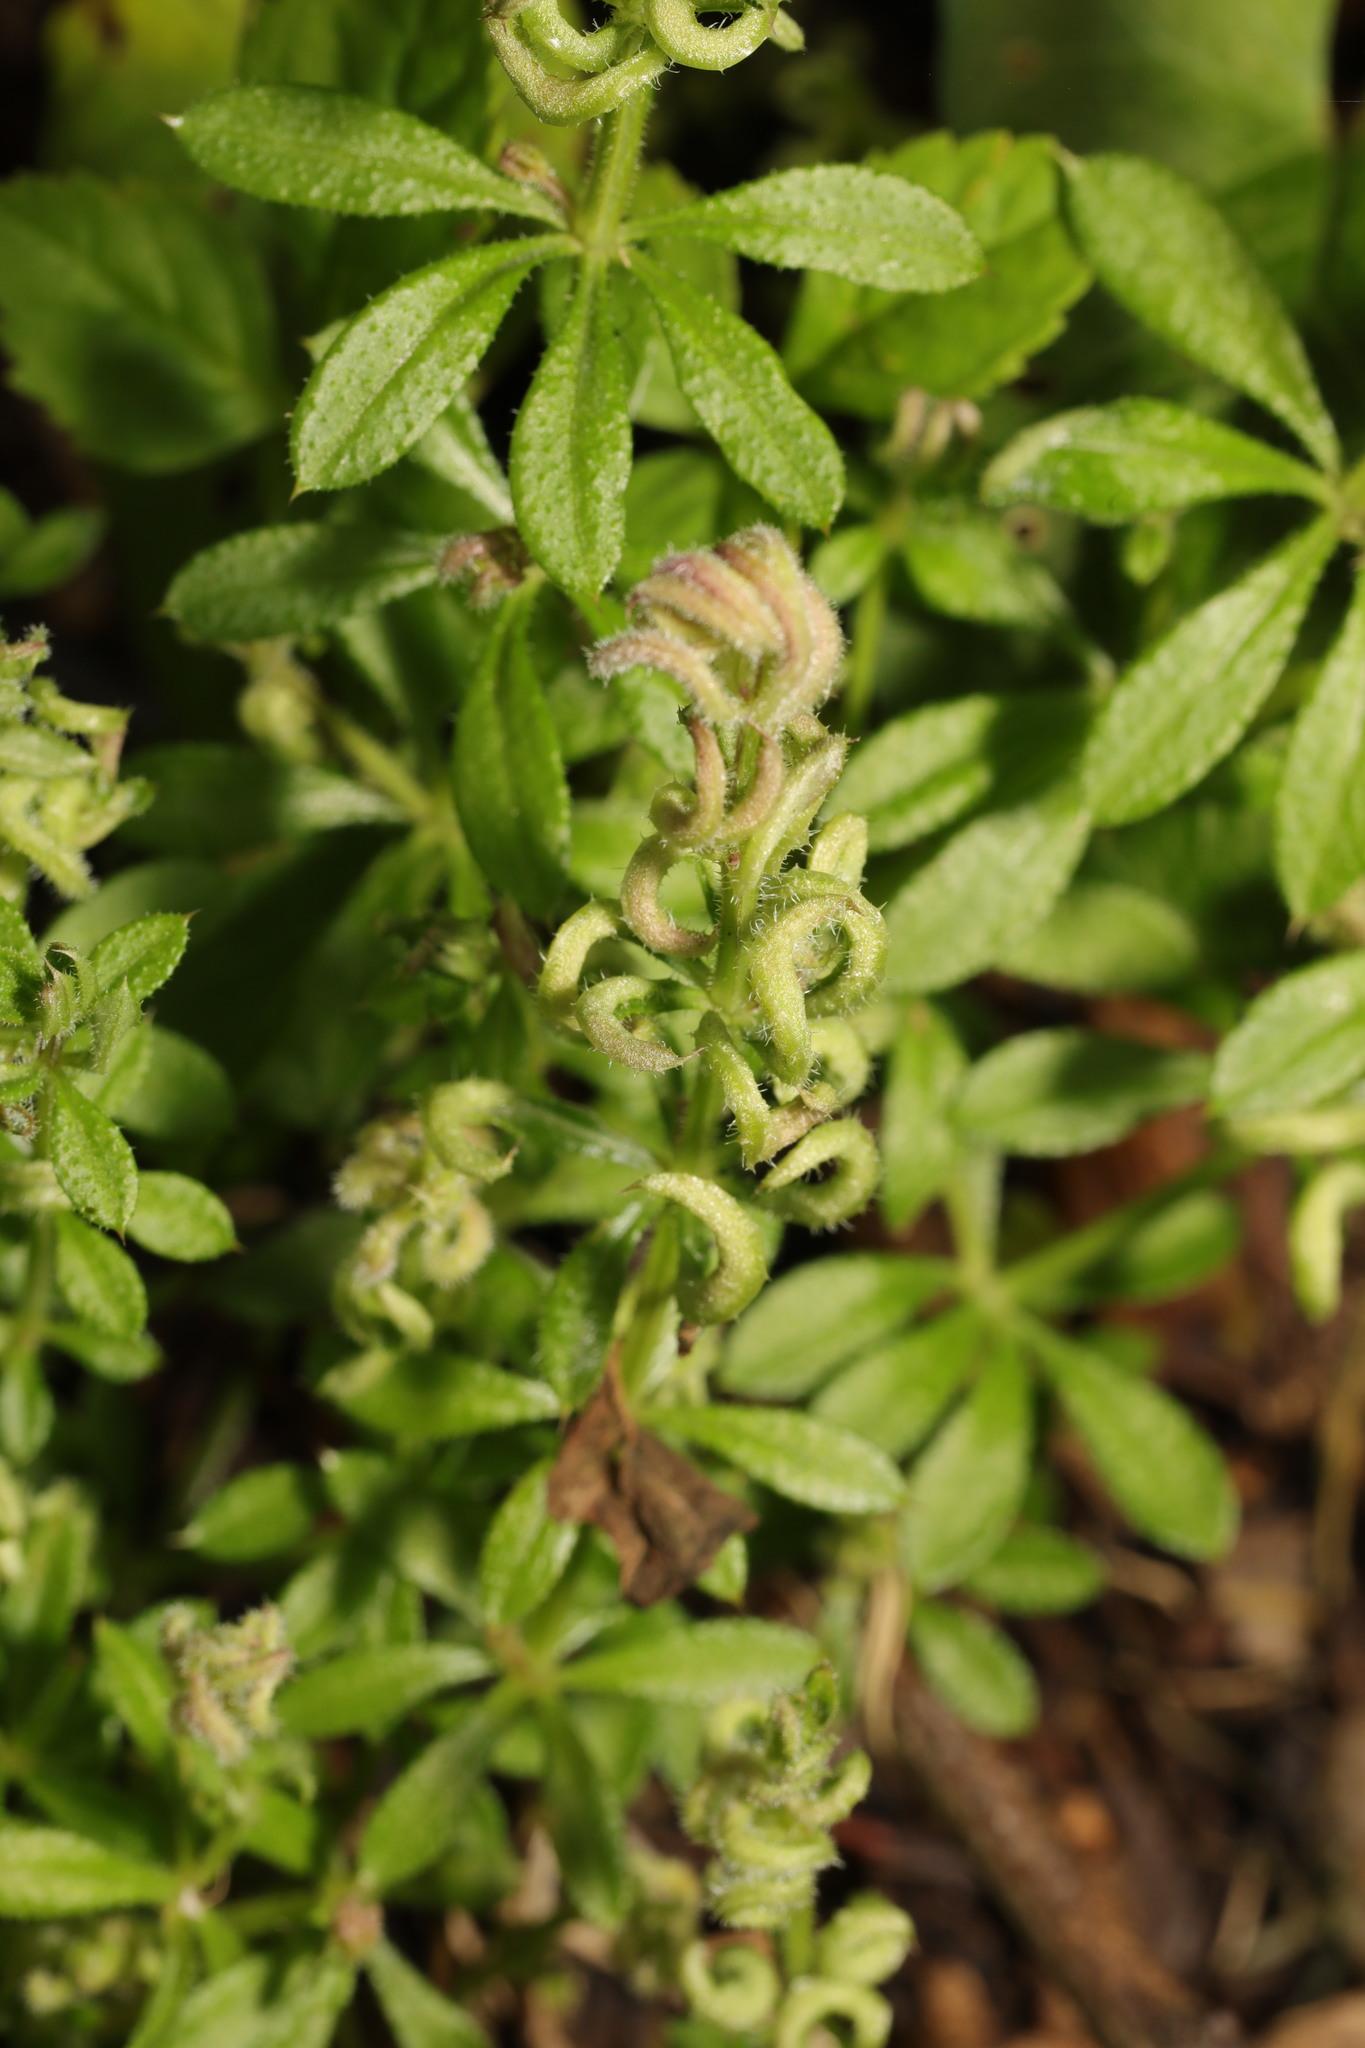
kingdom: Animalia
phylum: Arthropoda
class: Arachnida
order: Trombidiformes
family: Eriophyidae
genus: Cecidophyes
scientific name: Cecidophyes rouhollahi
